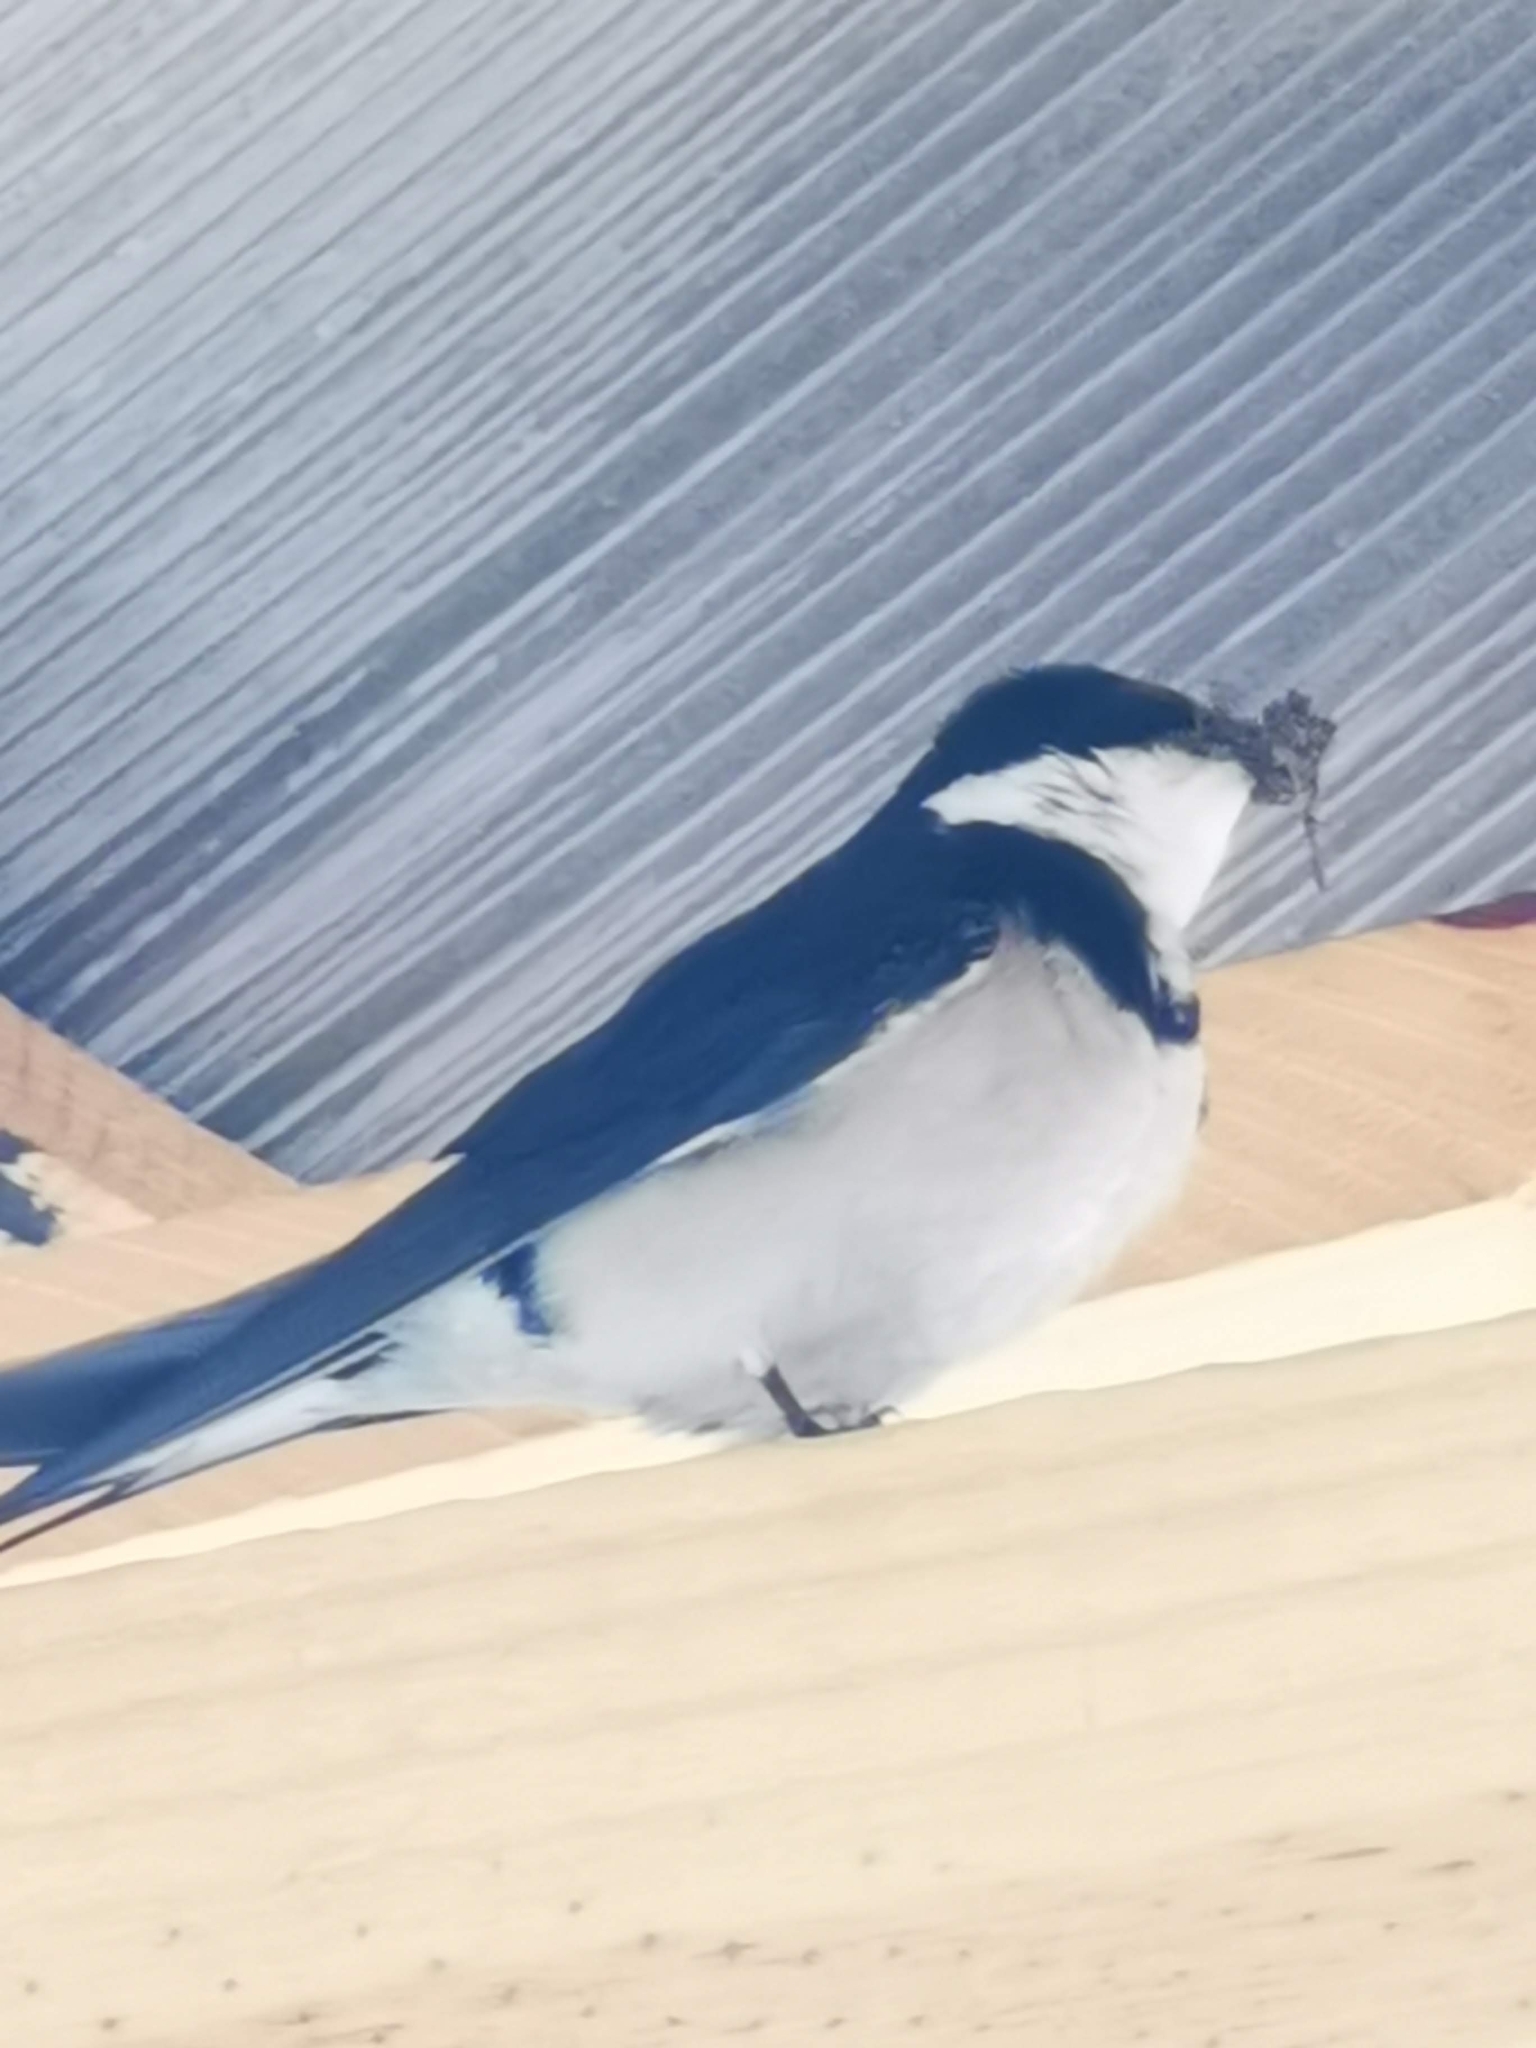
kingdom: Animalia
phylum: Chordata
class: Aves
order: Passeriformes
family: Hirundinidae
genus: Hirundo
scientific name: Hirundo albigularis
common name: White-throated swallow
